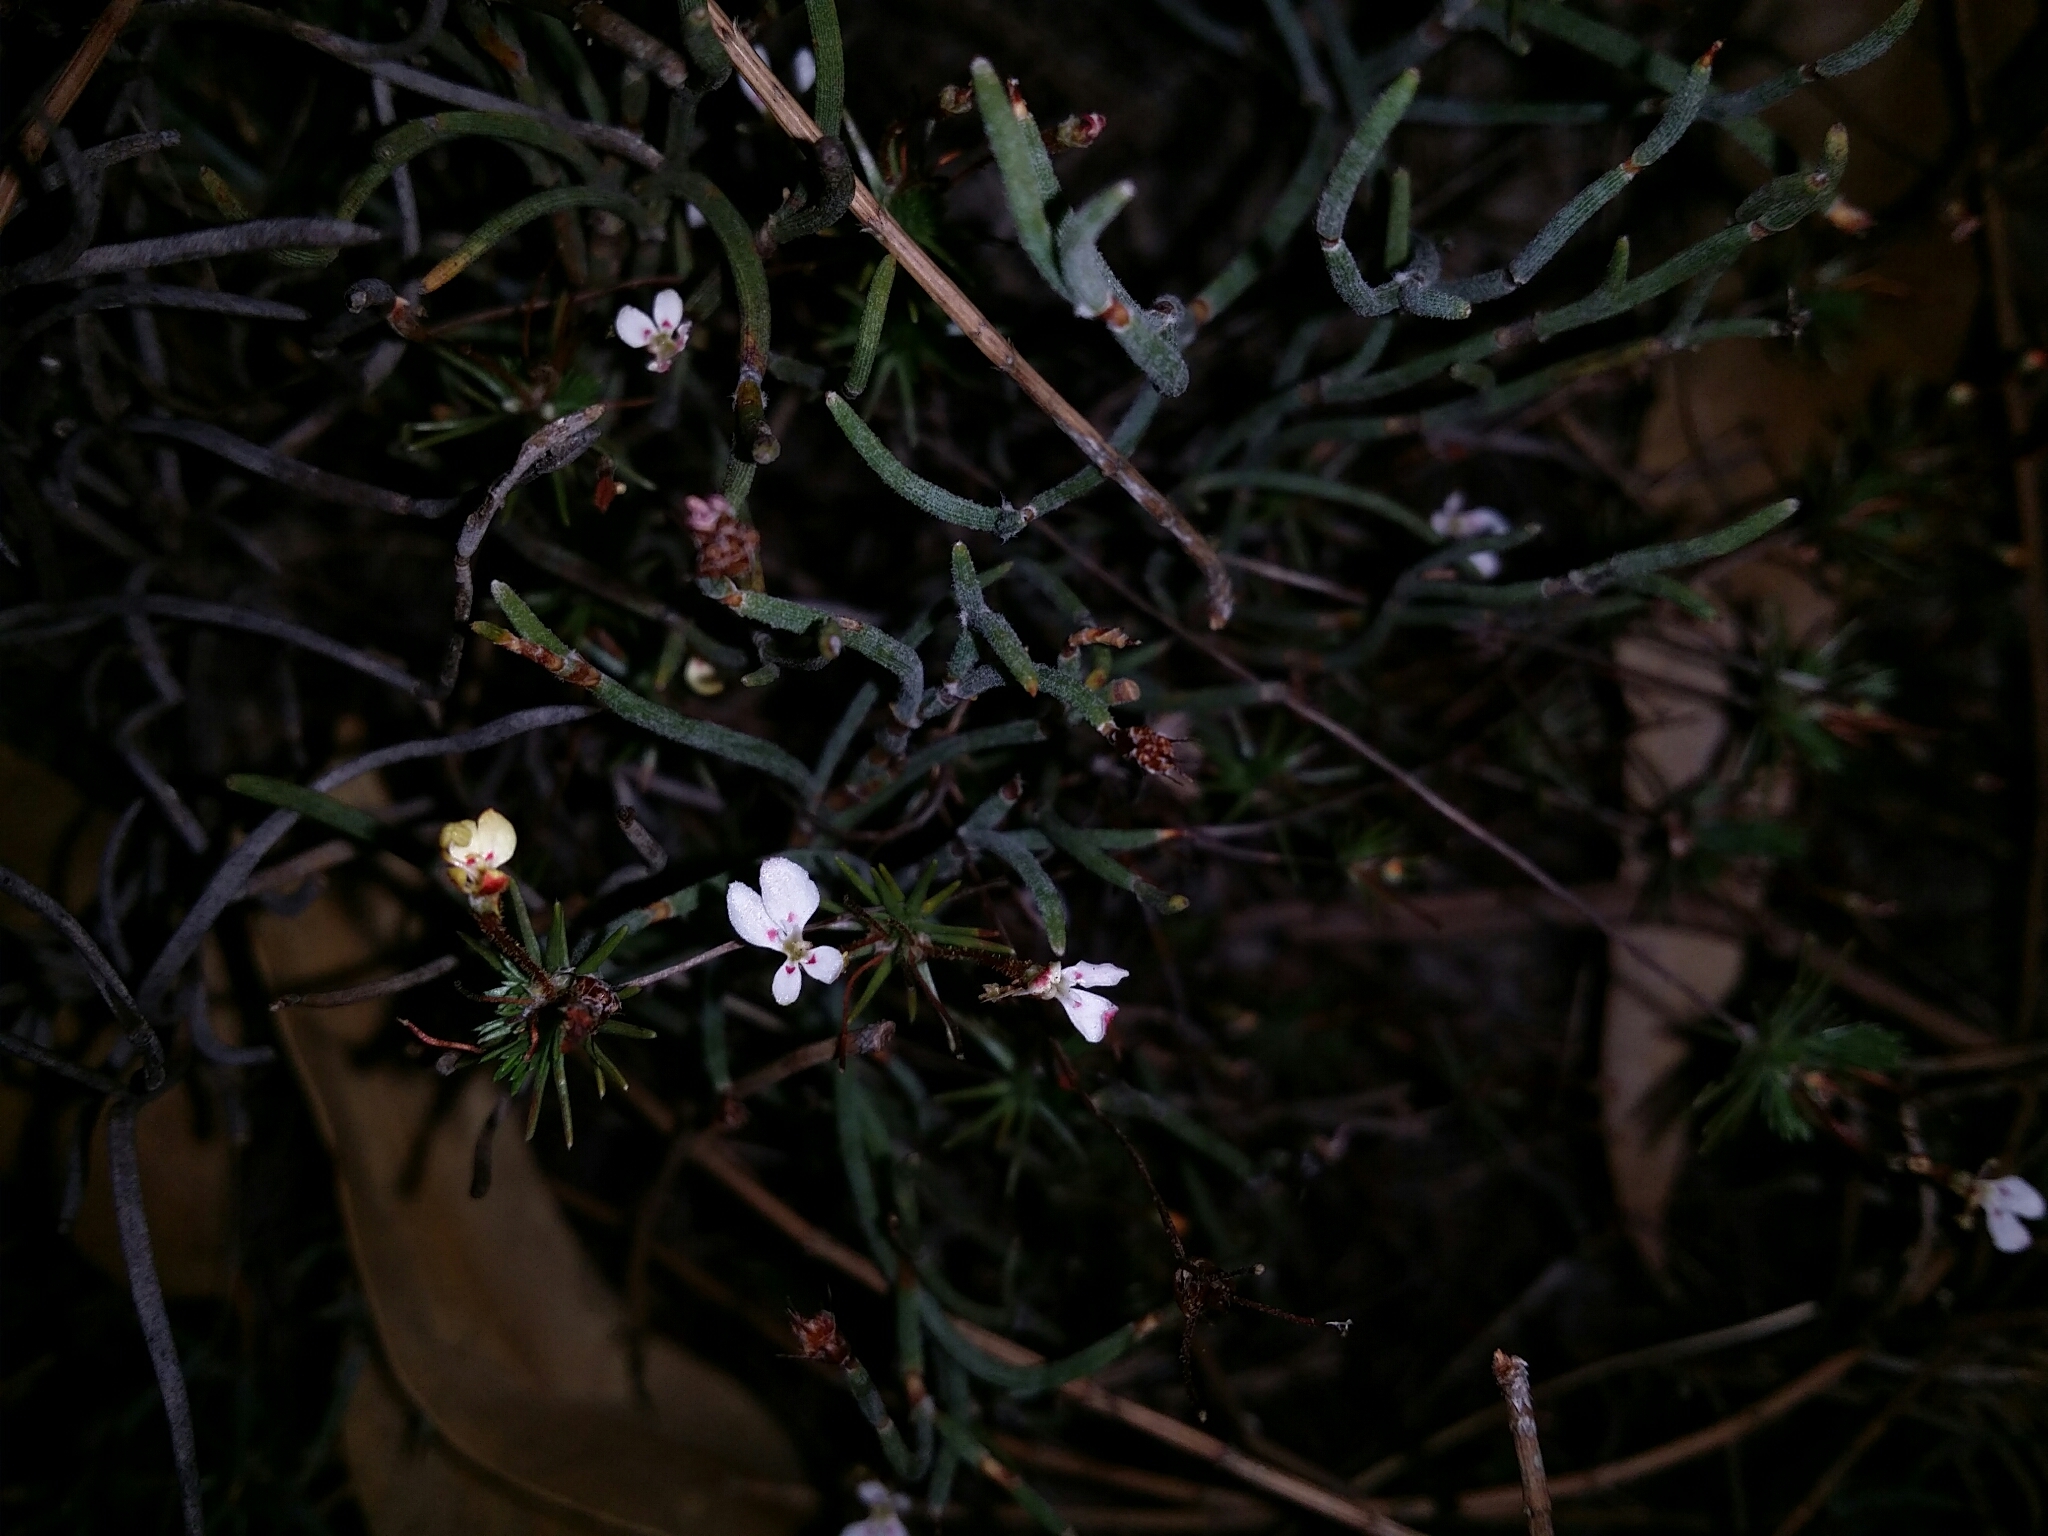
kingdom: Plantae
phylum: Tracheophyta
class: Magnoliopsida
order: Asterales
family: Stylidiaceae
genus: Stylidium
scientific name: Stylidium repens
